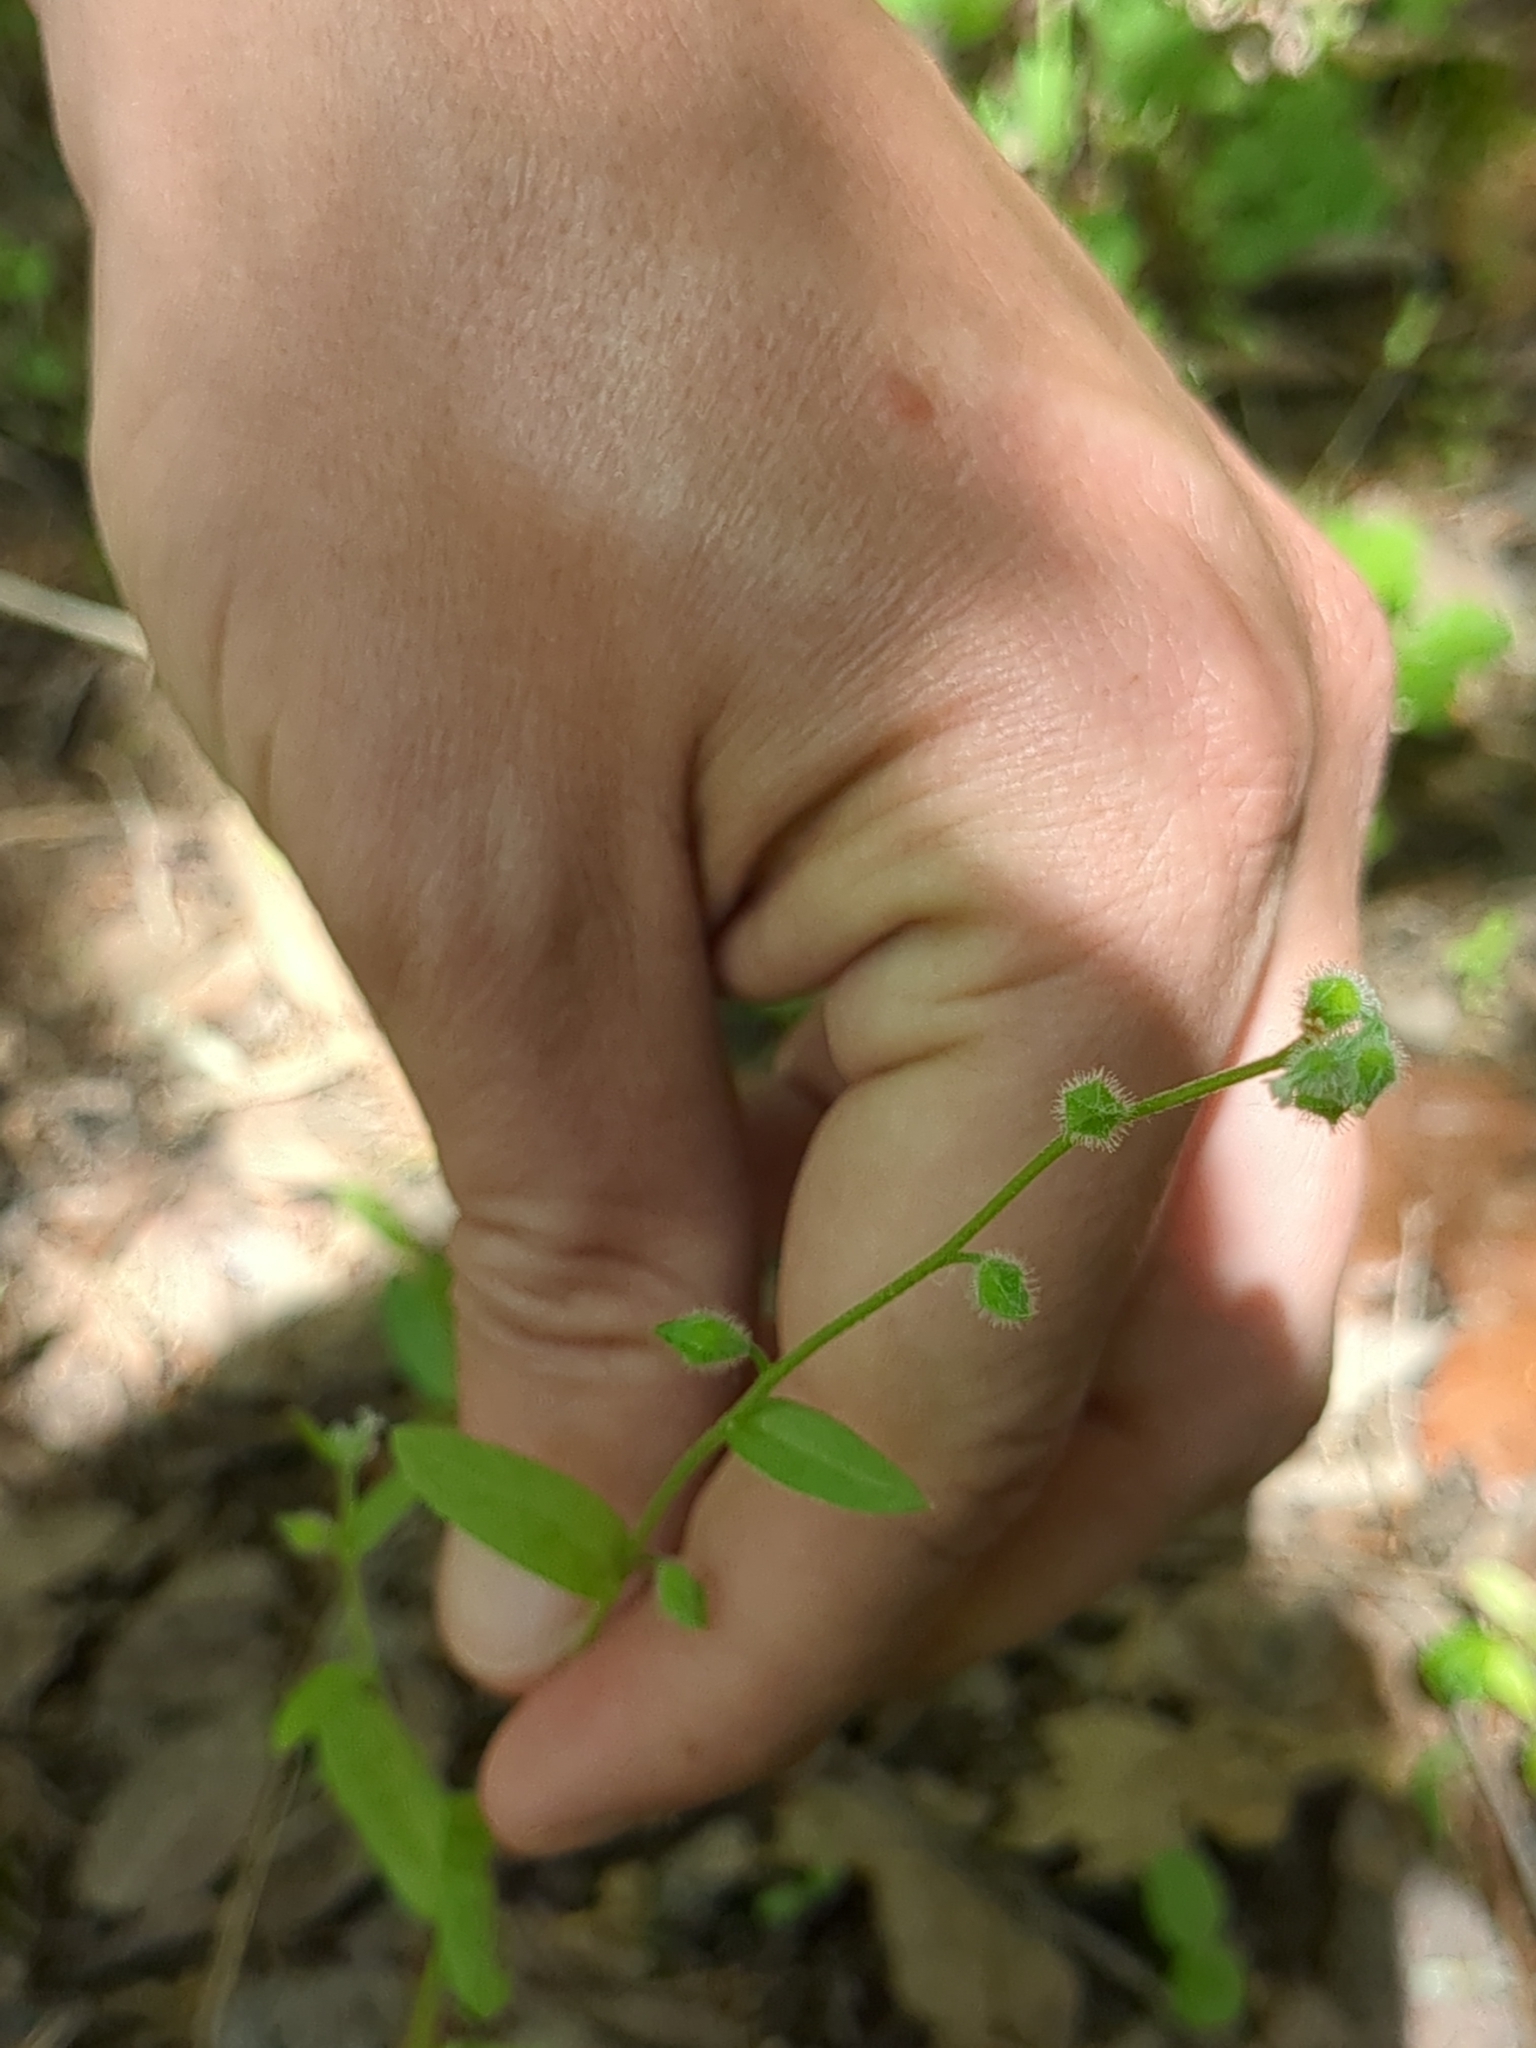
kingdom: Plantae
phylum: Tracheophyta
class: Magnoliopsida
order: Boraginales
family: Boraginaceae
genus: Myosotis
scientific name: Myosotis macrosperma
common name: Large-seed forget-me-not
